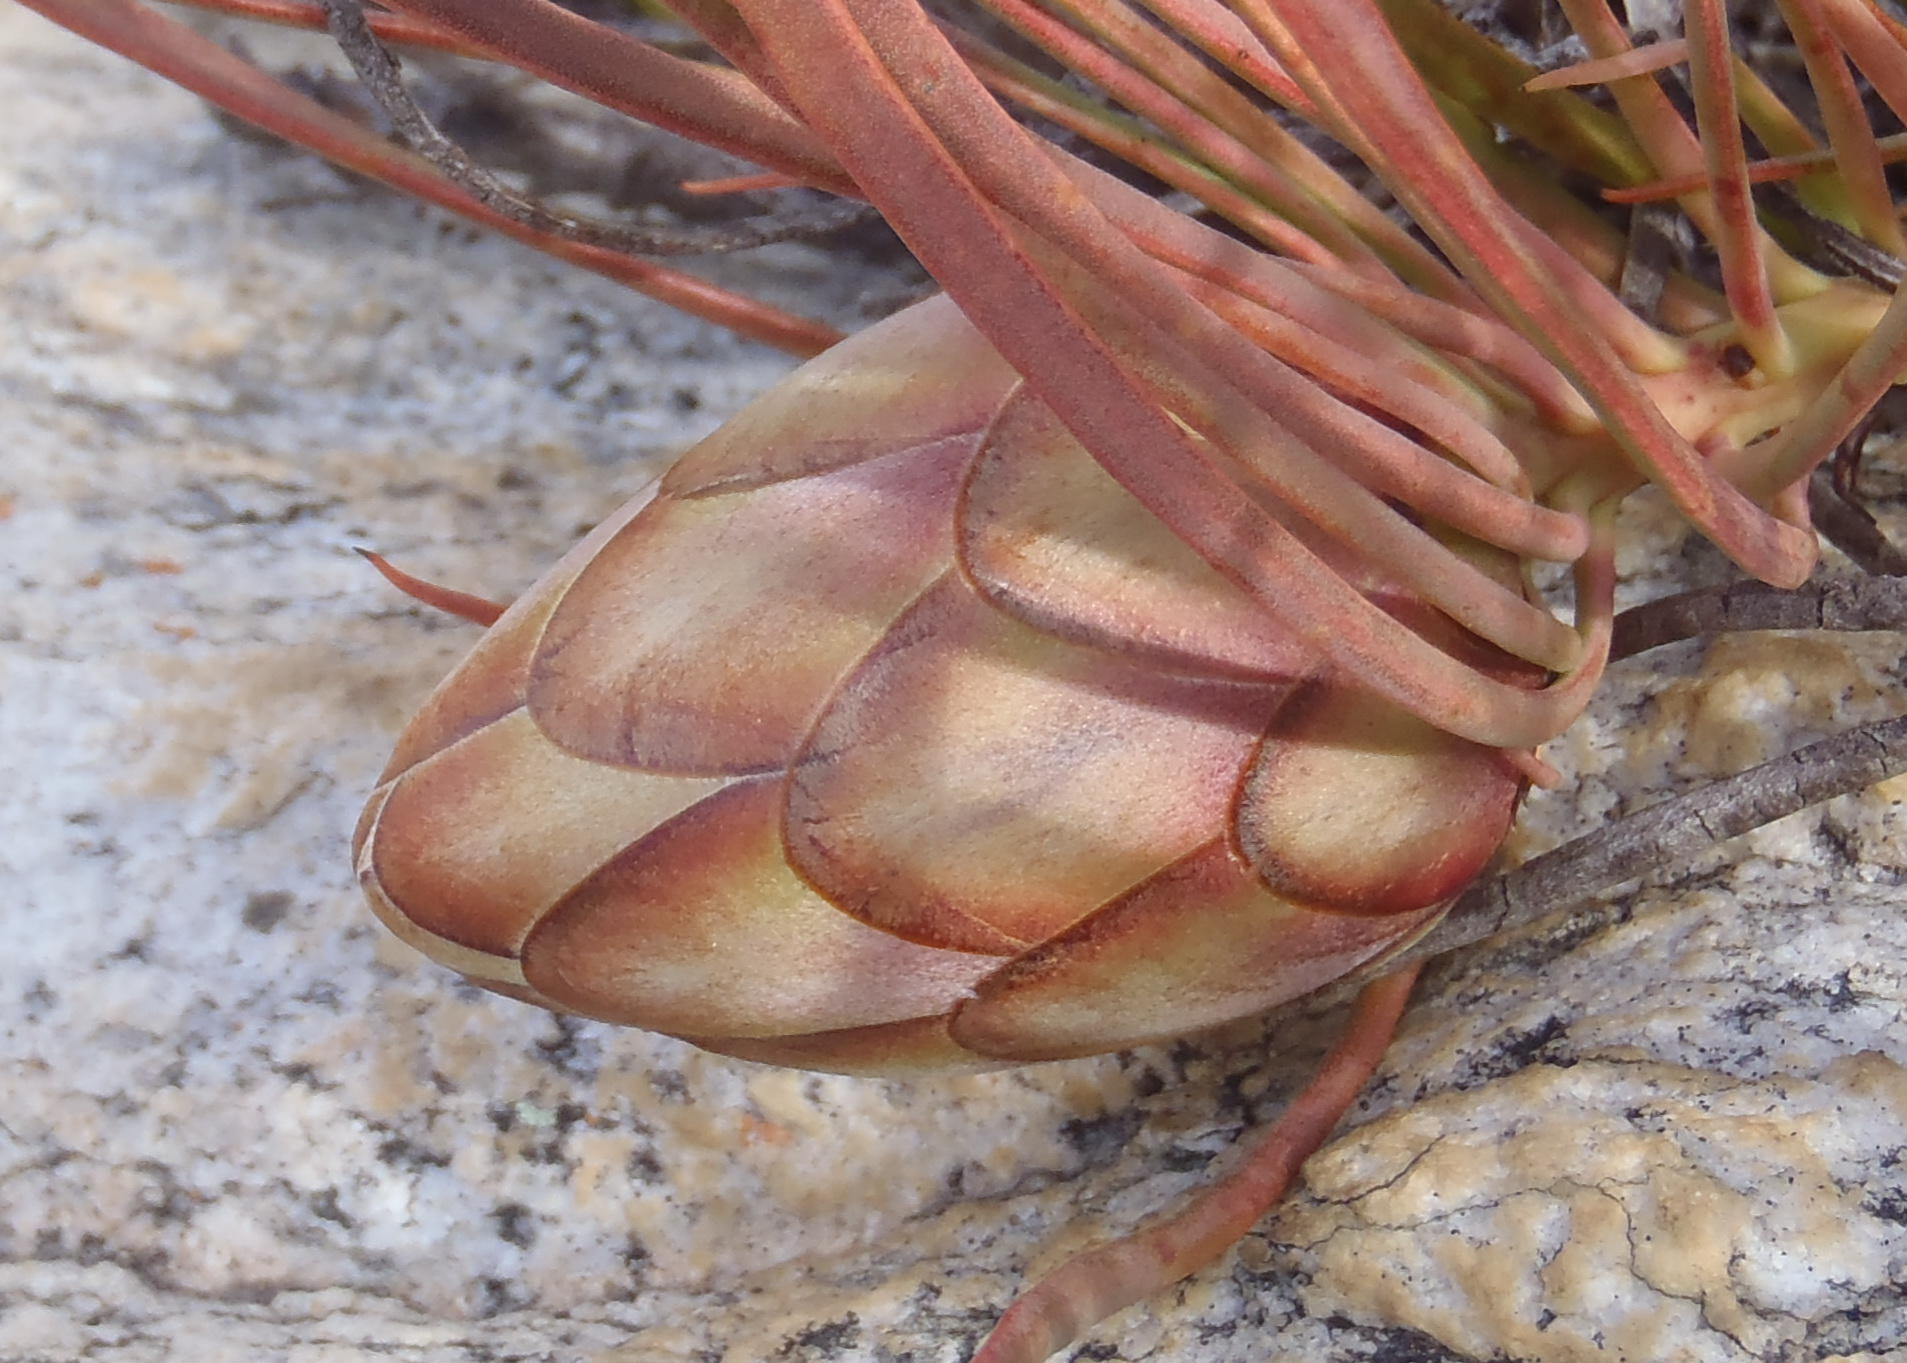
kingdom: Plantae
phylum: Tracheophyta
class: Magnoliopsida
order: Proteales
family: Proteaceae
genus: Protea
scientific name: Protea montana
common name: Swartberg sugarbush
